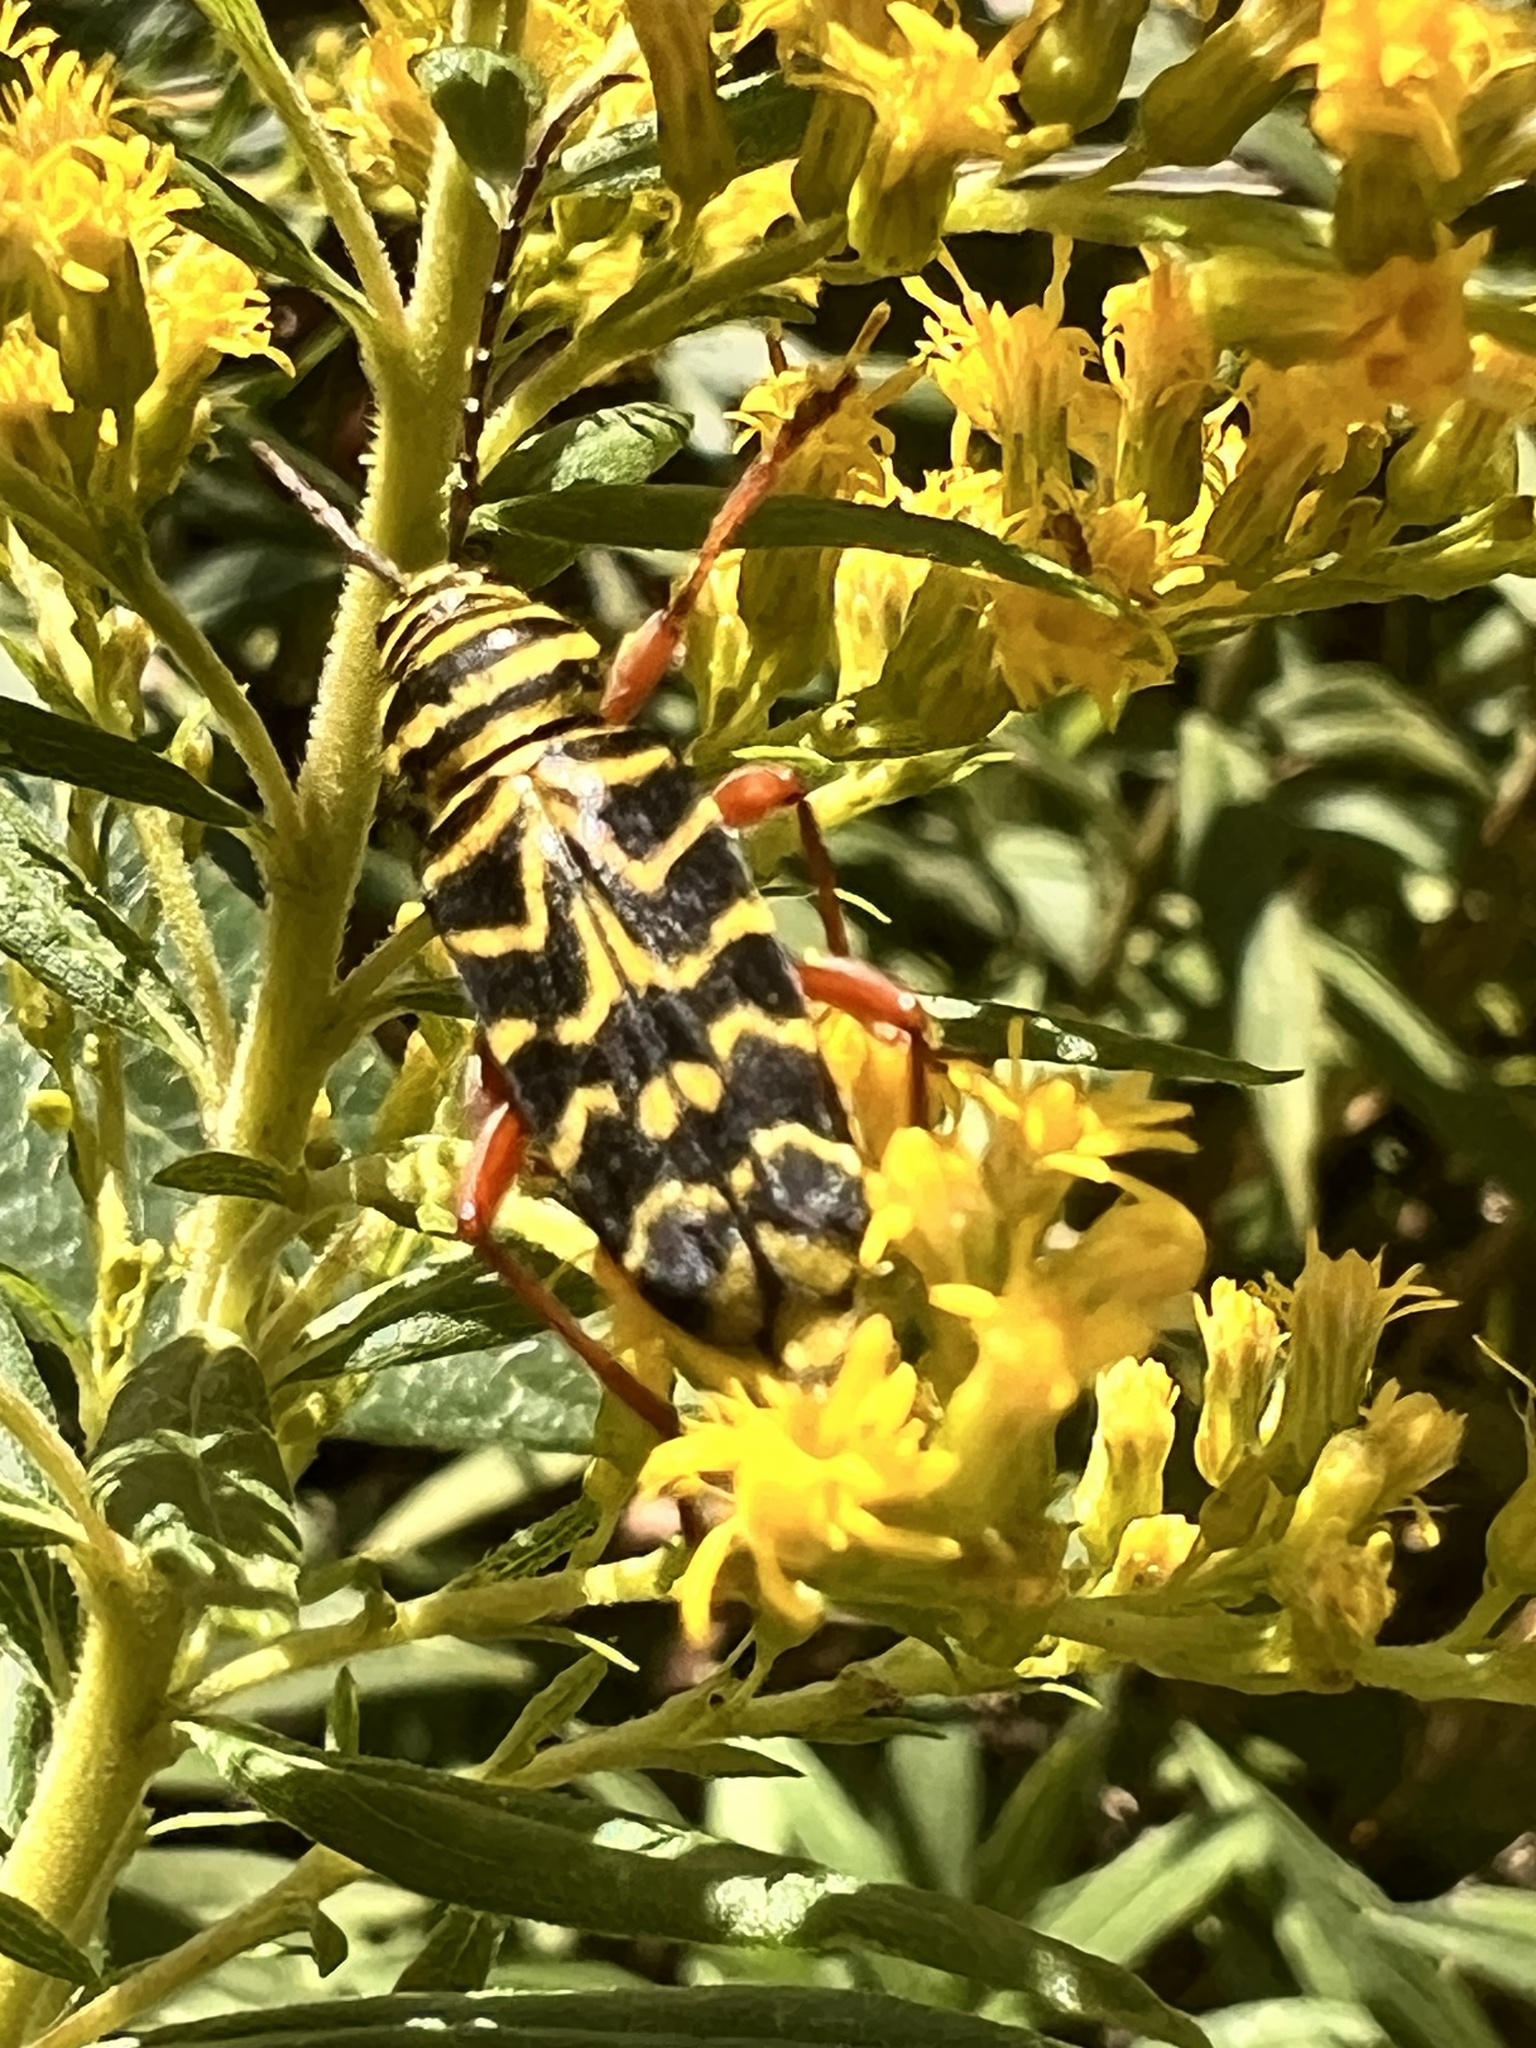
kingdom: Animalia
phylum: Arthropoda
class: Insecta
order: Coleoptera
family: Cerambycidae
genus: Megacyllene
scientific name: Megacyllene robiniae
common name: Locust borer
